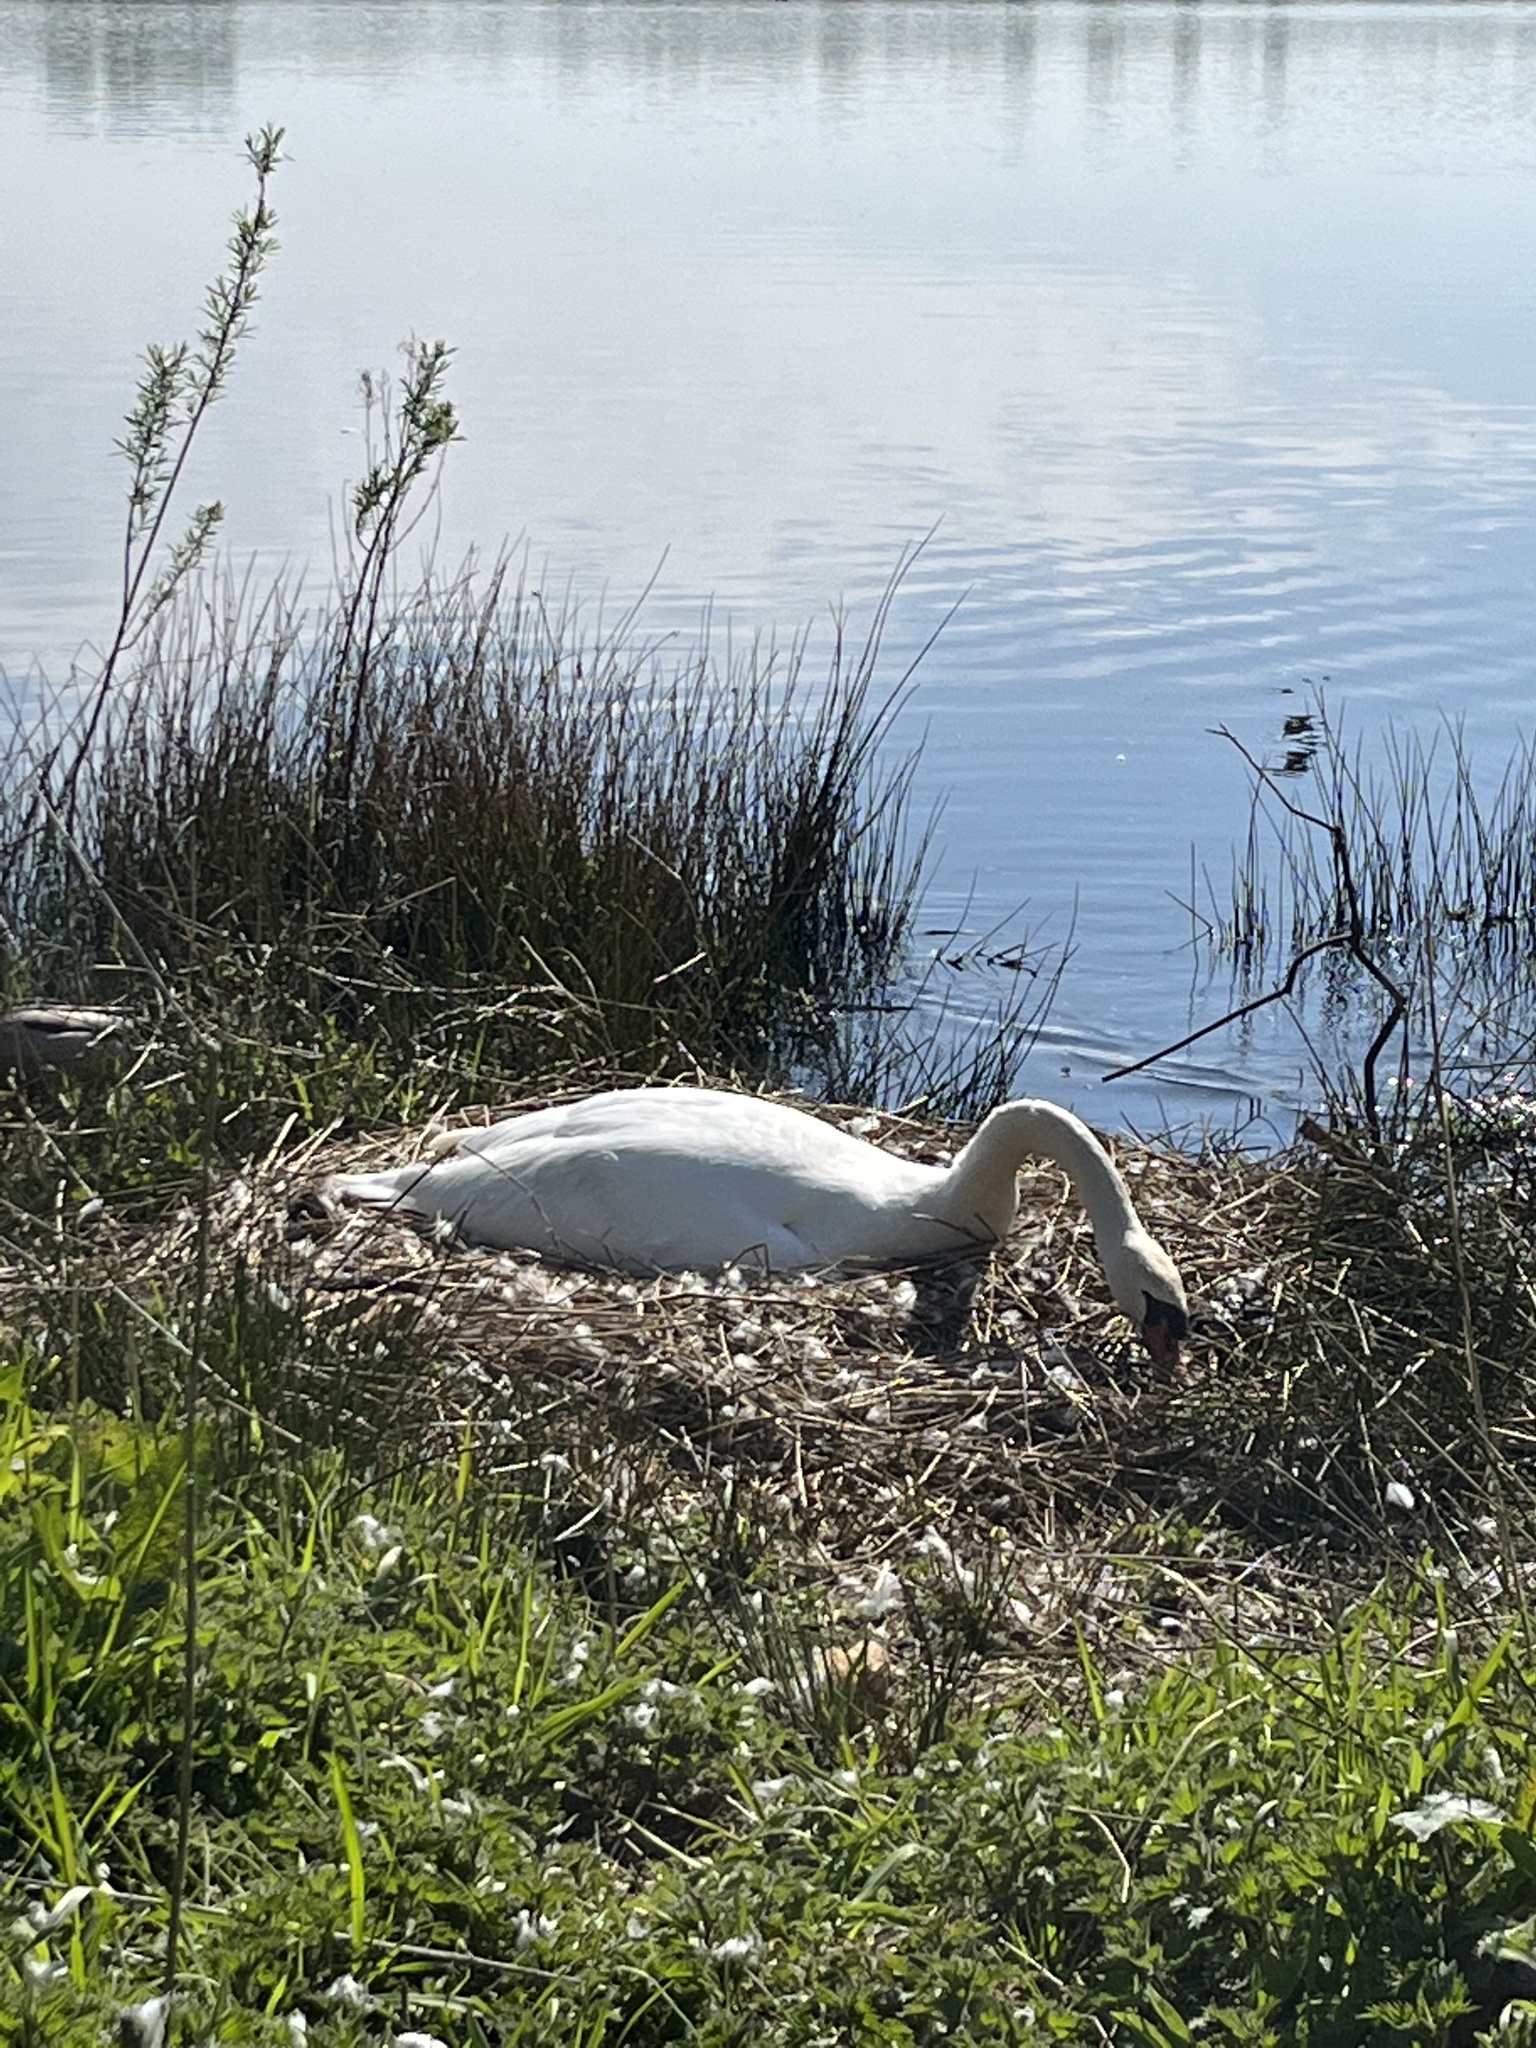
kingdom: Animalia
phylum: Chordata
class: Aves
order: Anseriformes
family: Anatidae
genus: Cygnus
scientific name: Cygnus olor
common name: Mute swan
